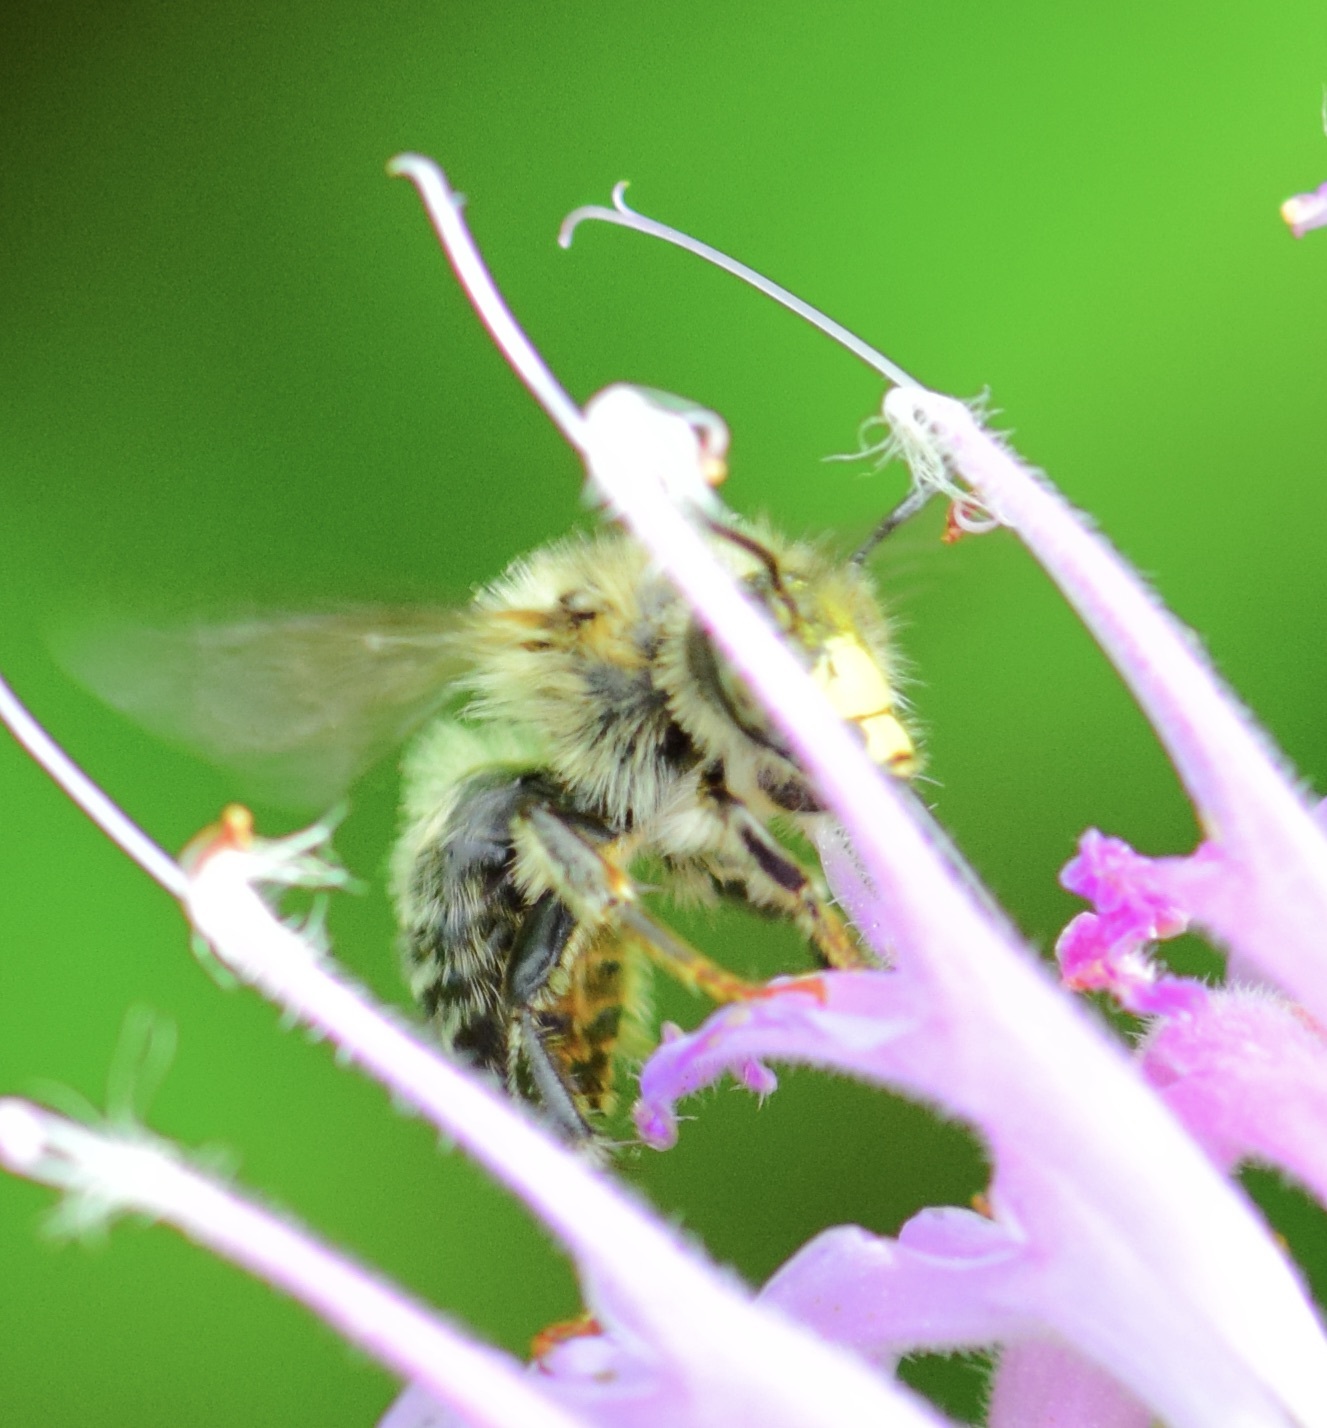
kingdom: Animalia
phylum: Arthropoda
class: Insecta
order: Hymenoptera
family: Apidae
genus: Anthophora
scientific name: Anthophora terminalis
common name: Orange-tipped wood-digger bee
